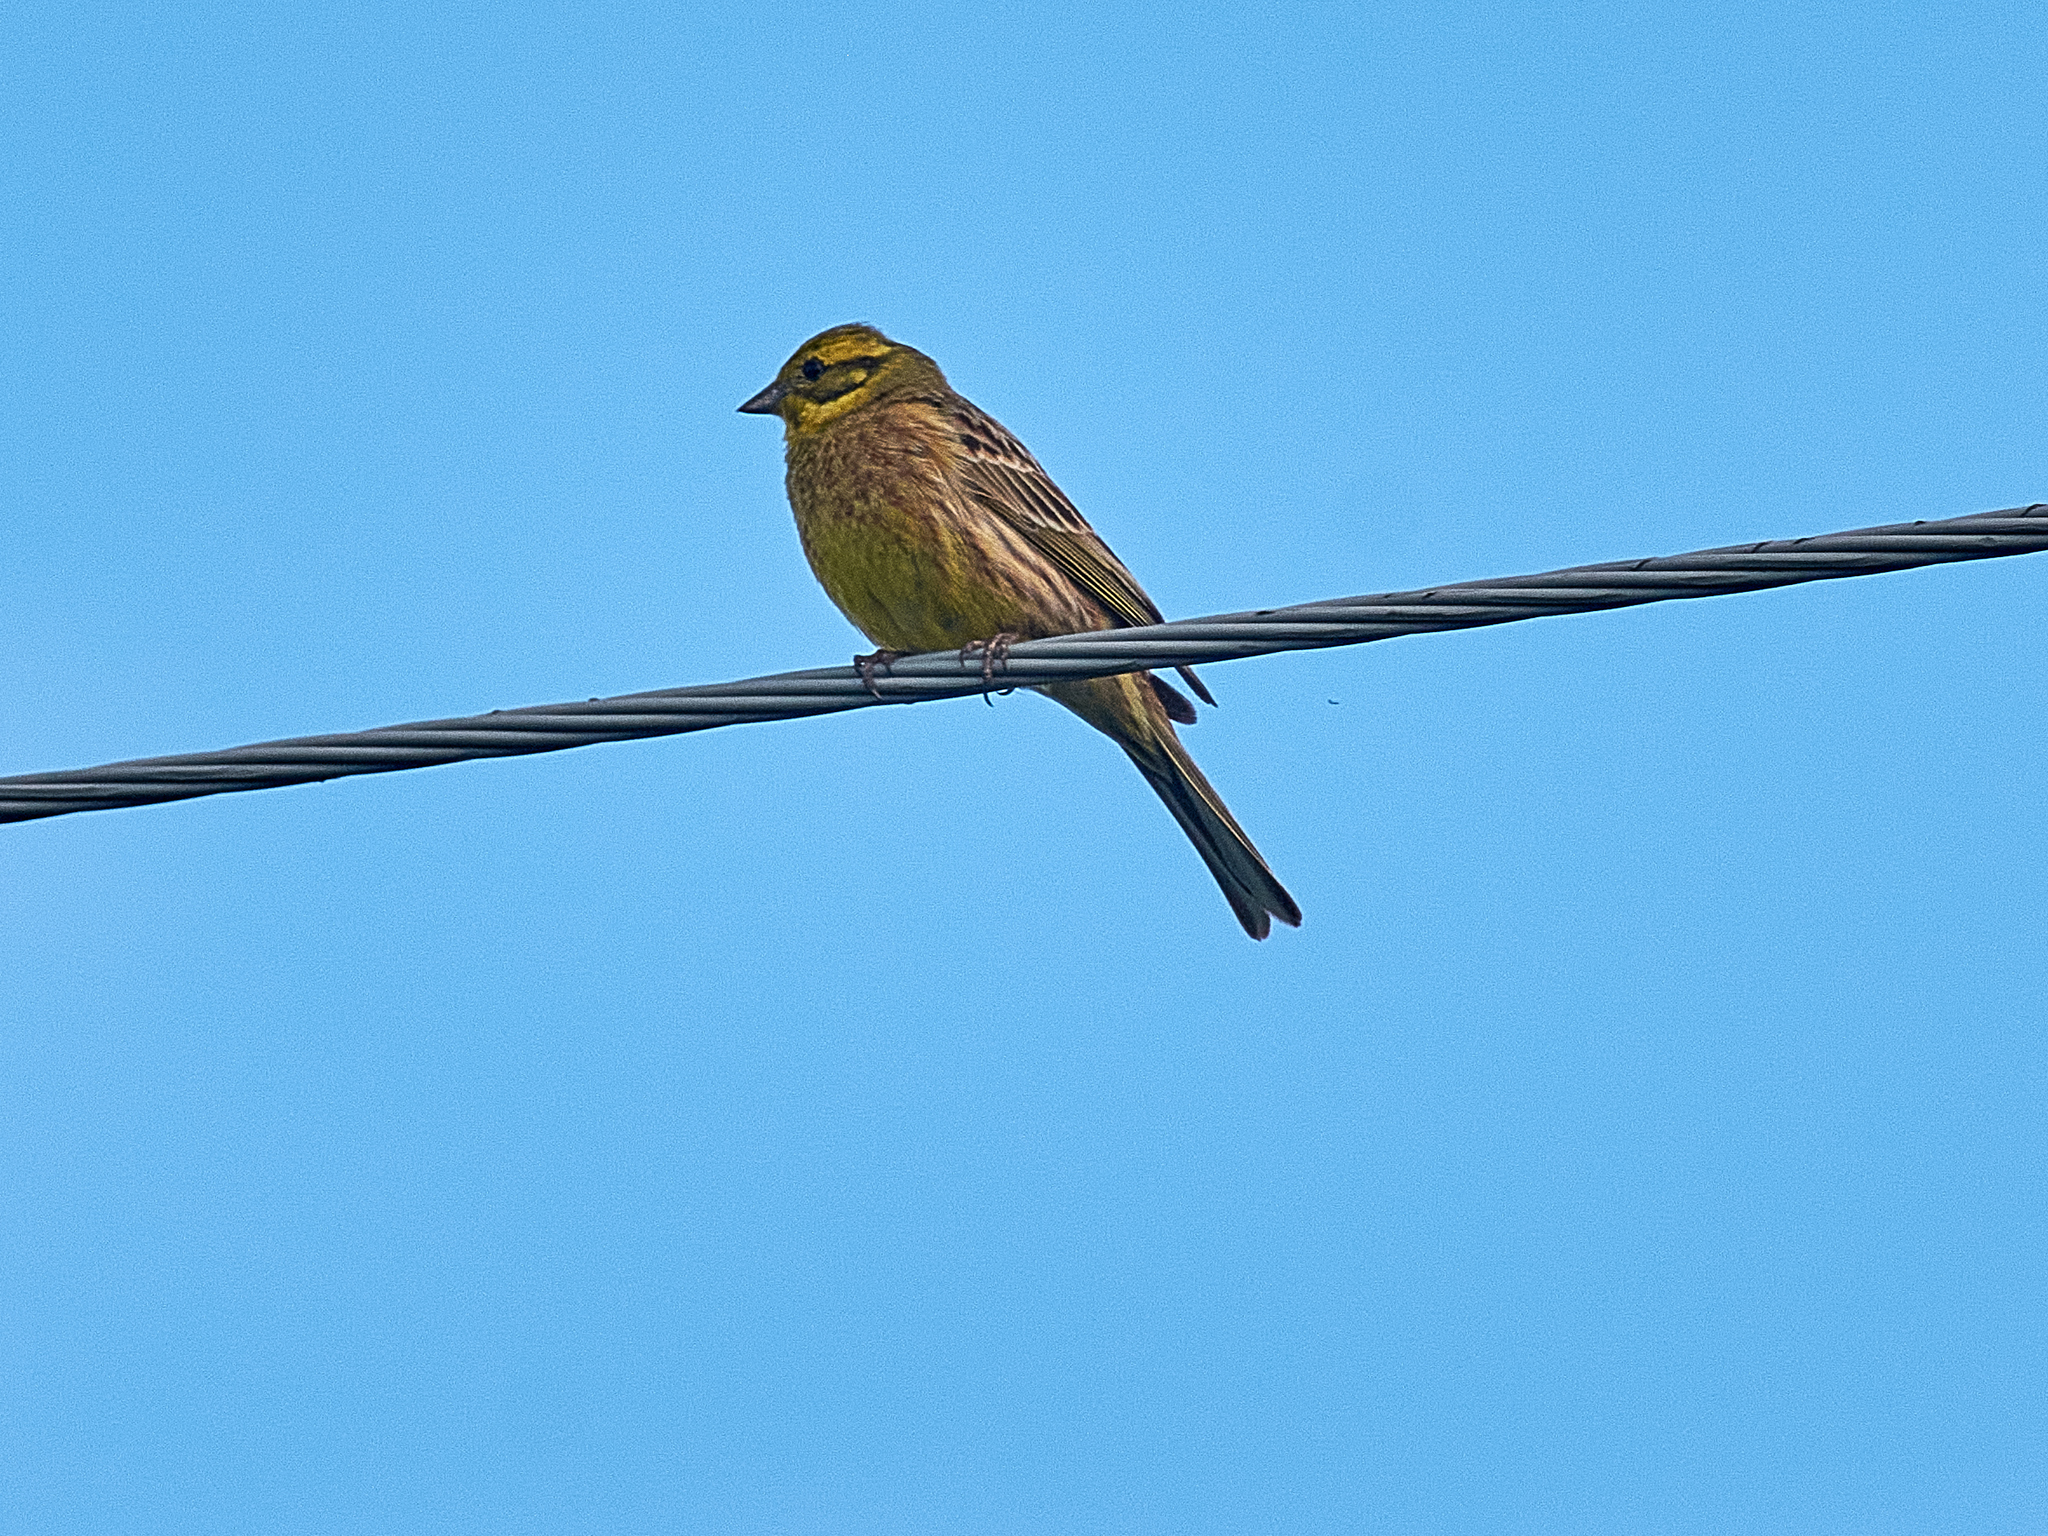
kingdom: Animalia
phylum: Chordata
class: Aves
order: Passeriformes
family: Emberizidae
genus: Emberiza
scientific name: Emberiza citrinella
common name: Yellowhammer
